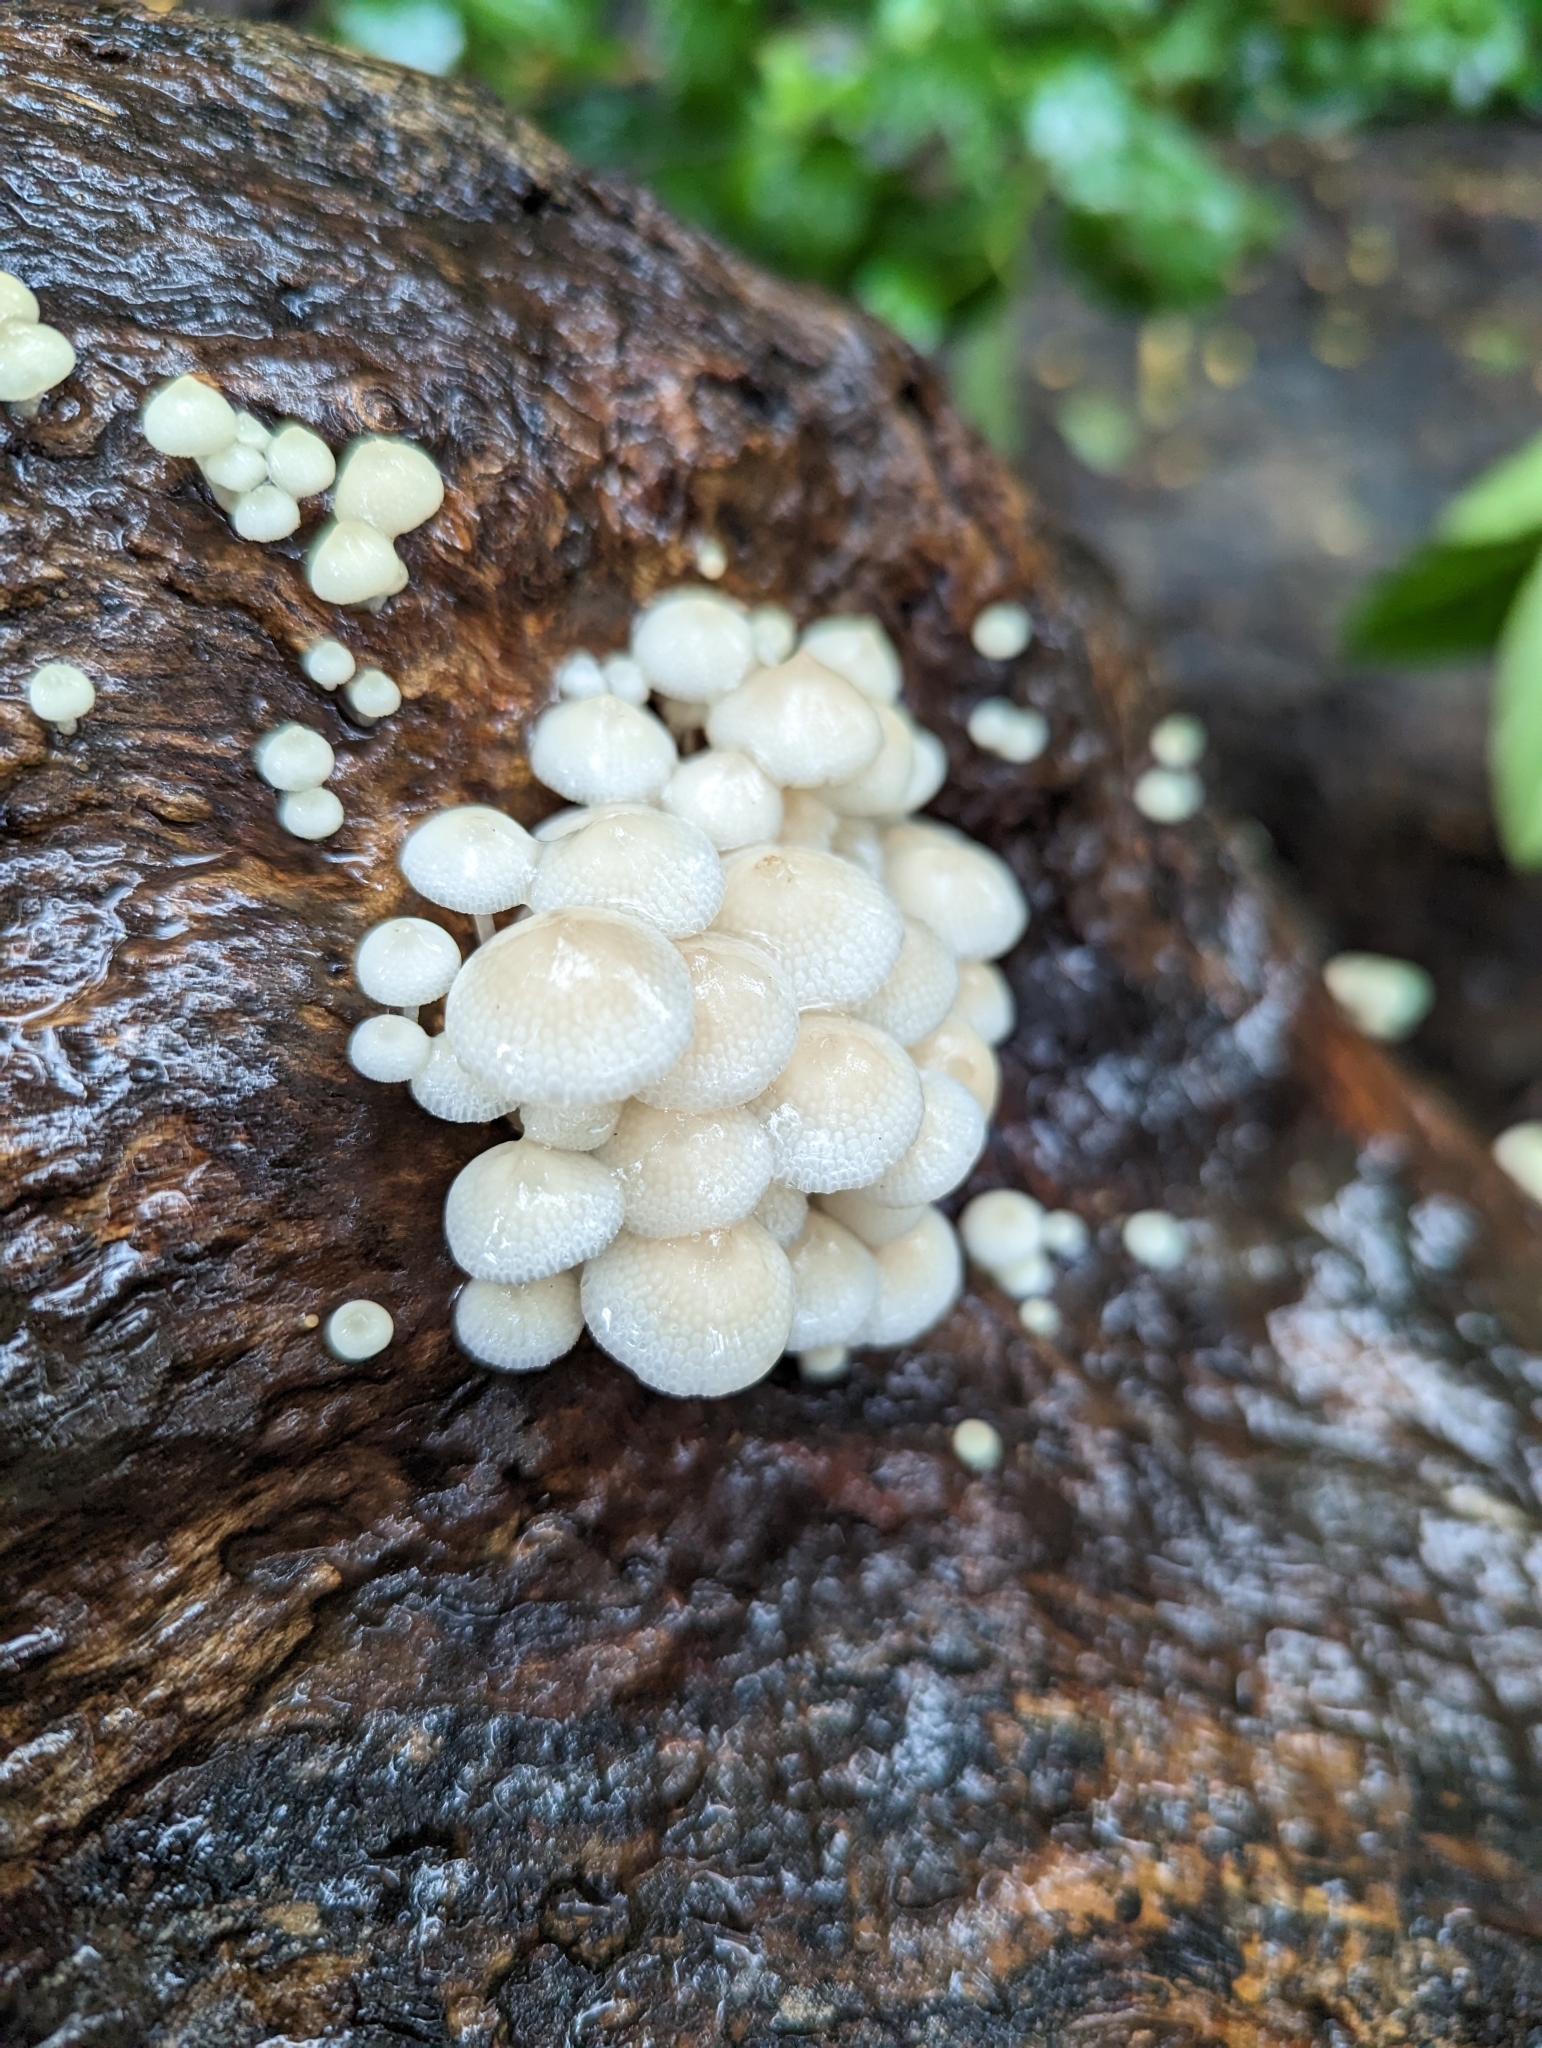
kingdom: Fungi
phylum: Basidiomycota
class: Agaricomycetes
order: Agaricales
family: Mycenaceae
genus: Filoboletus
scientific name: Filoboletus manipularis
